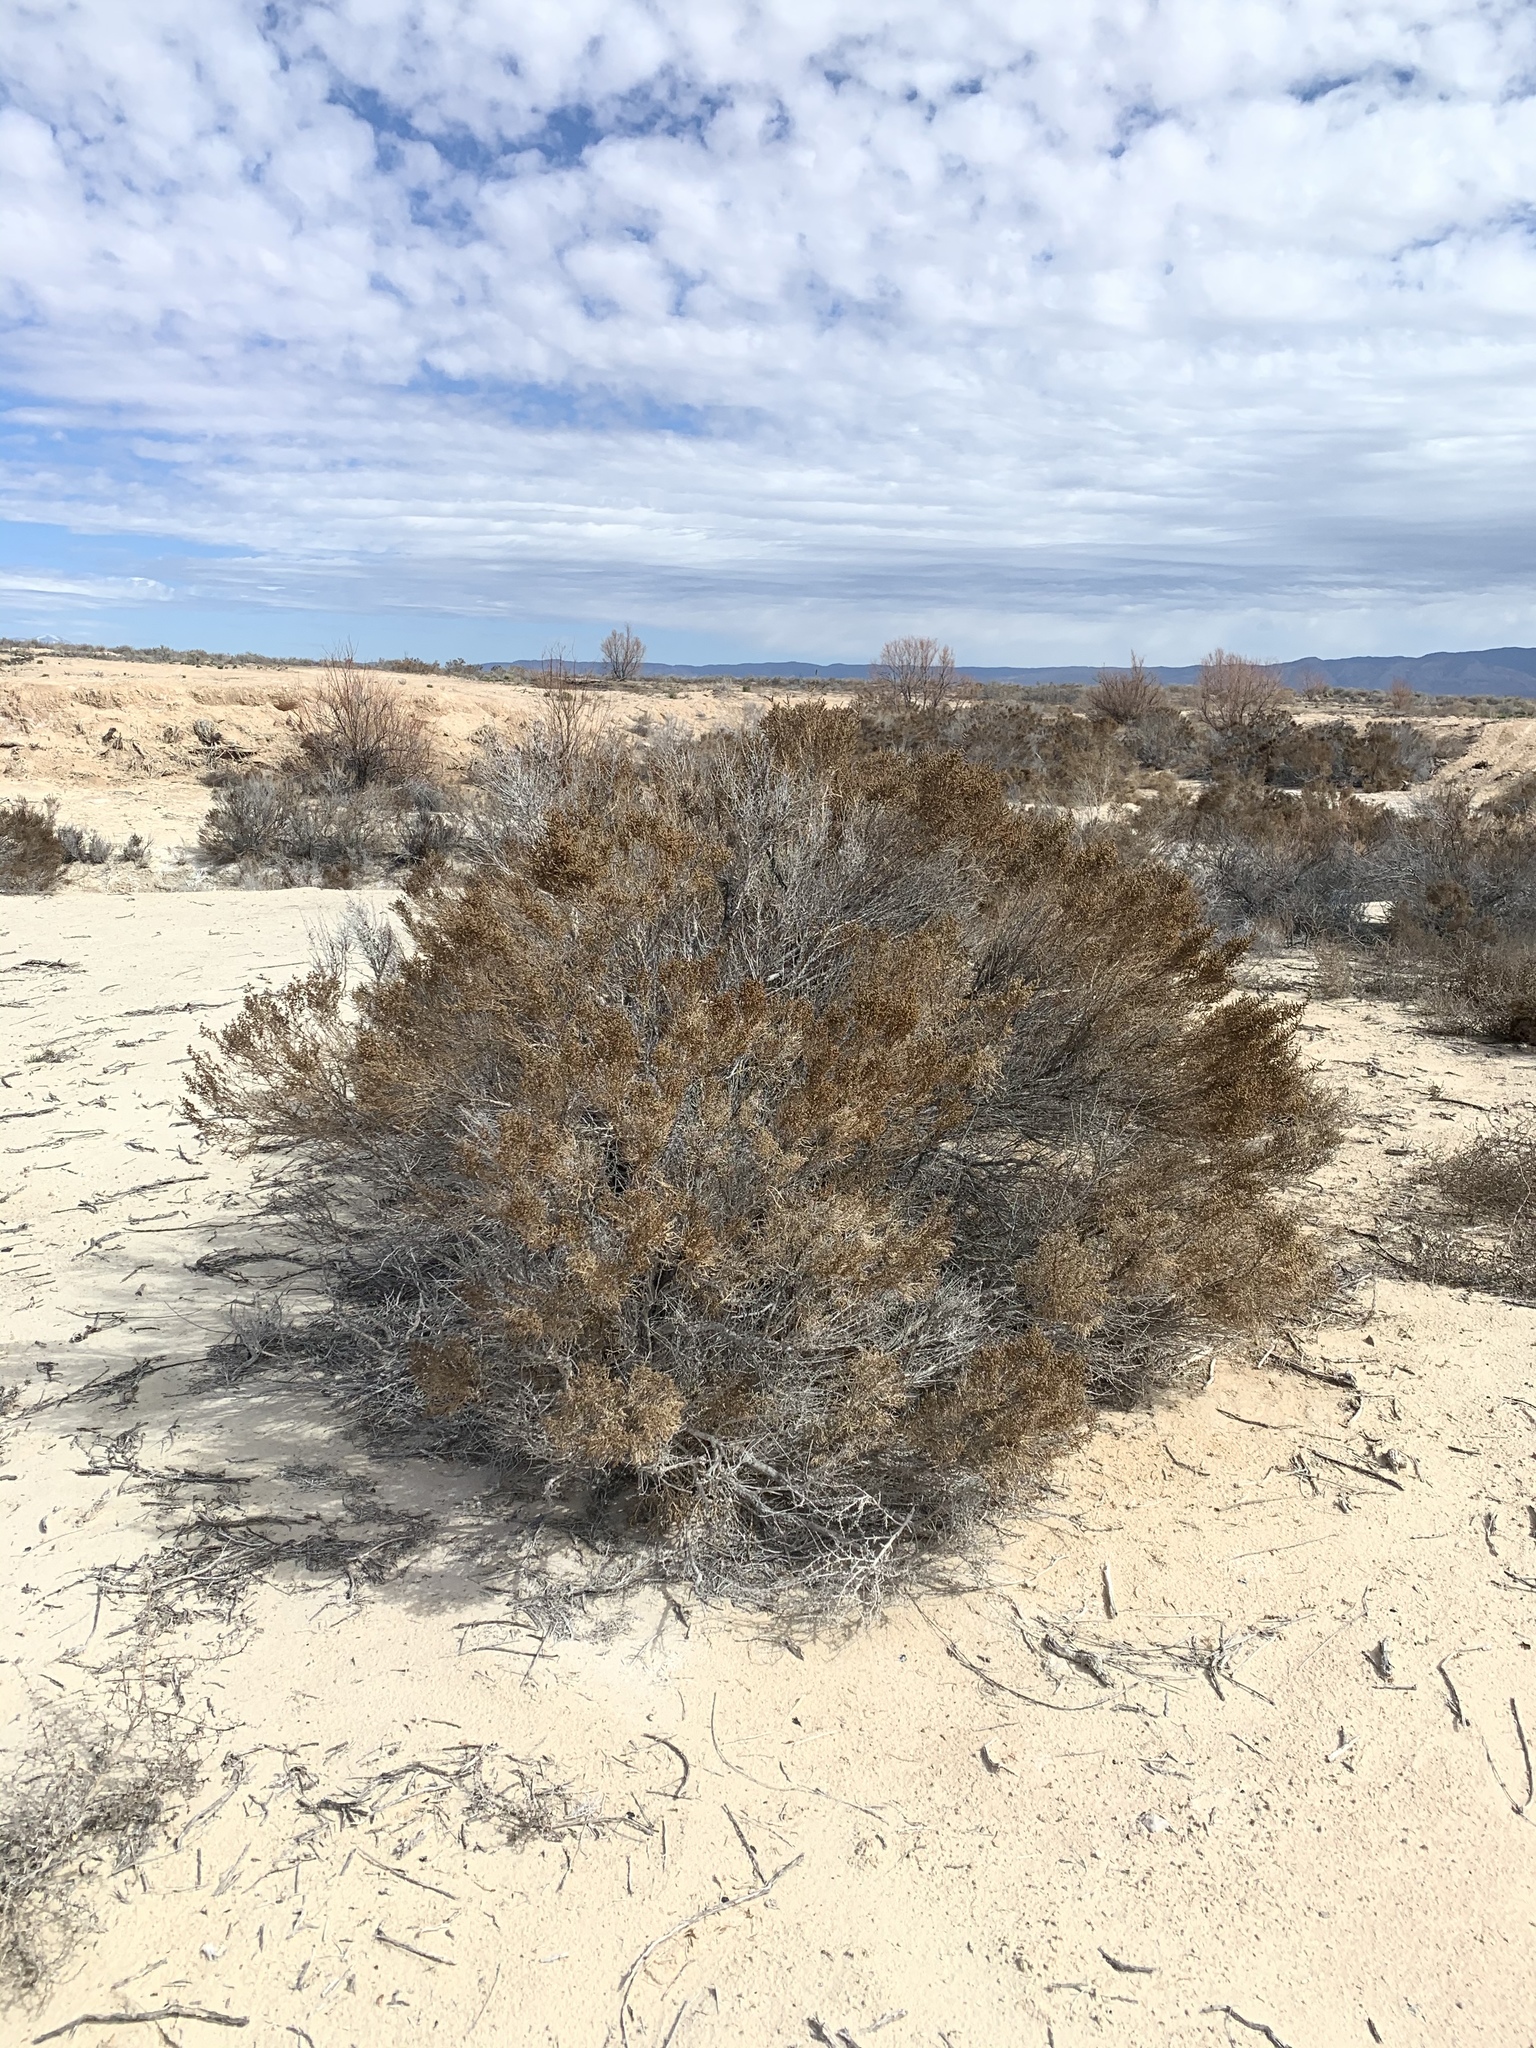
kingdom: Plantae
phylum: Tracheophyta
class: Magnoliopsida
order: Caryophyllales
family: Amaranthaceae
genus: Allenrolfea
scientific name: Allenrolfea occidentalis
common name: Iodine-bush
